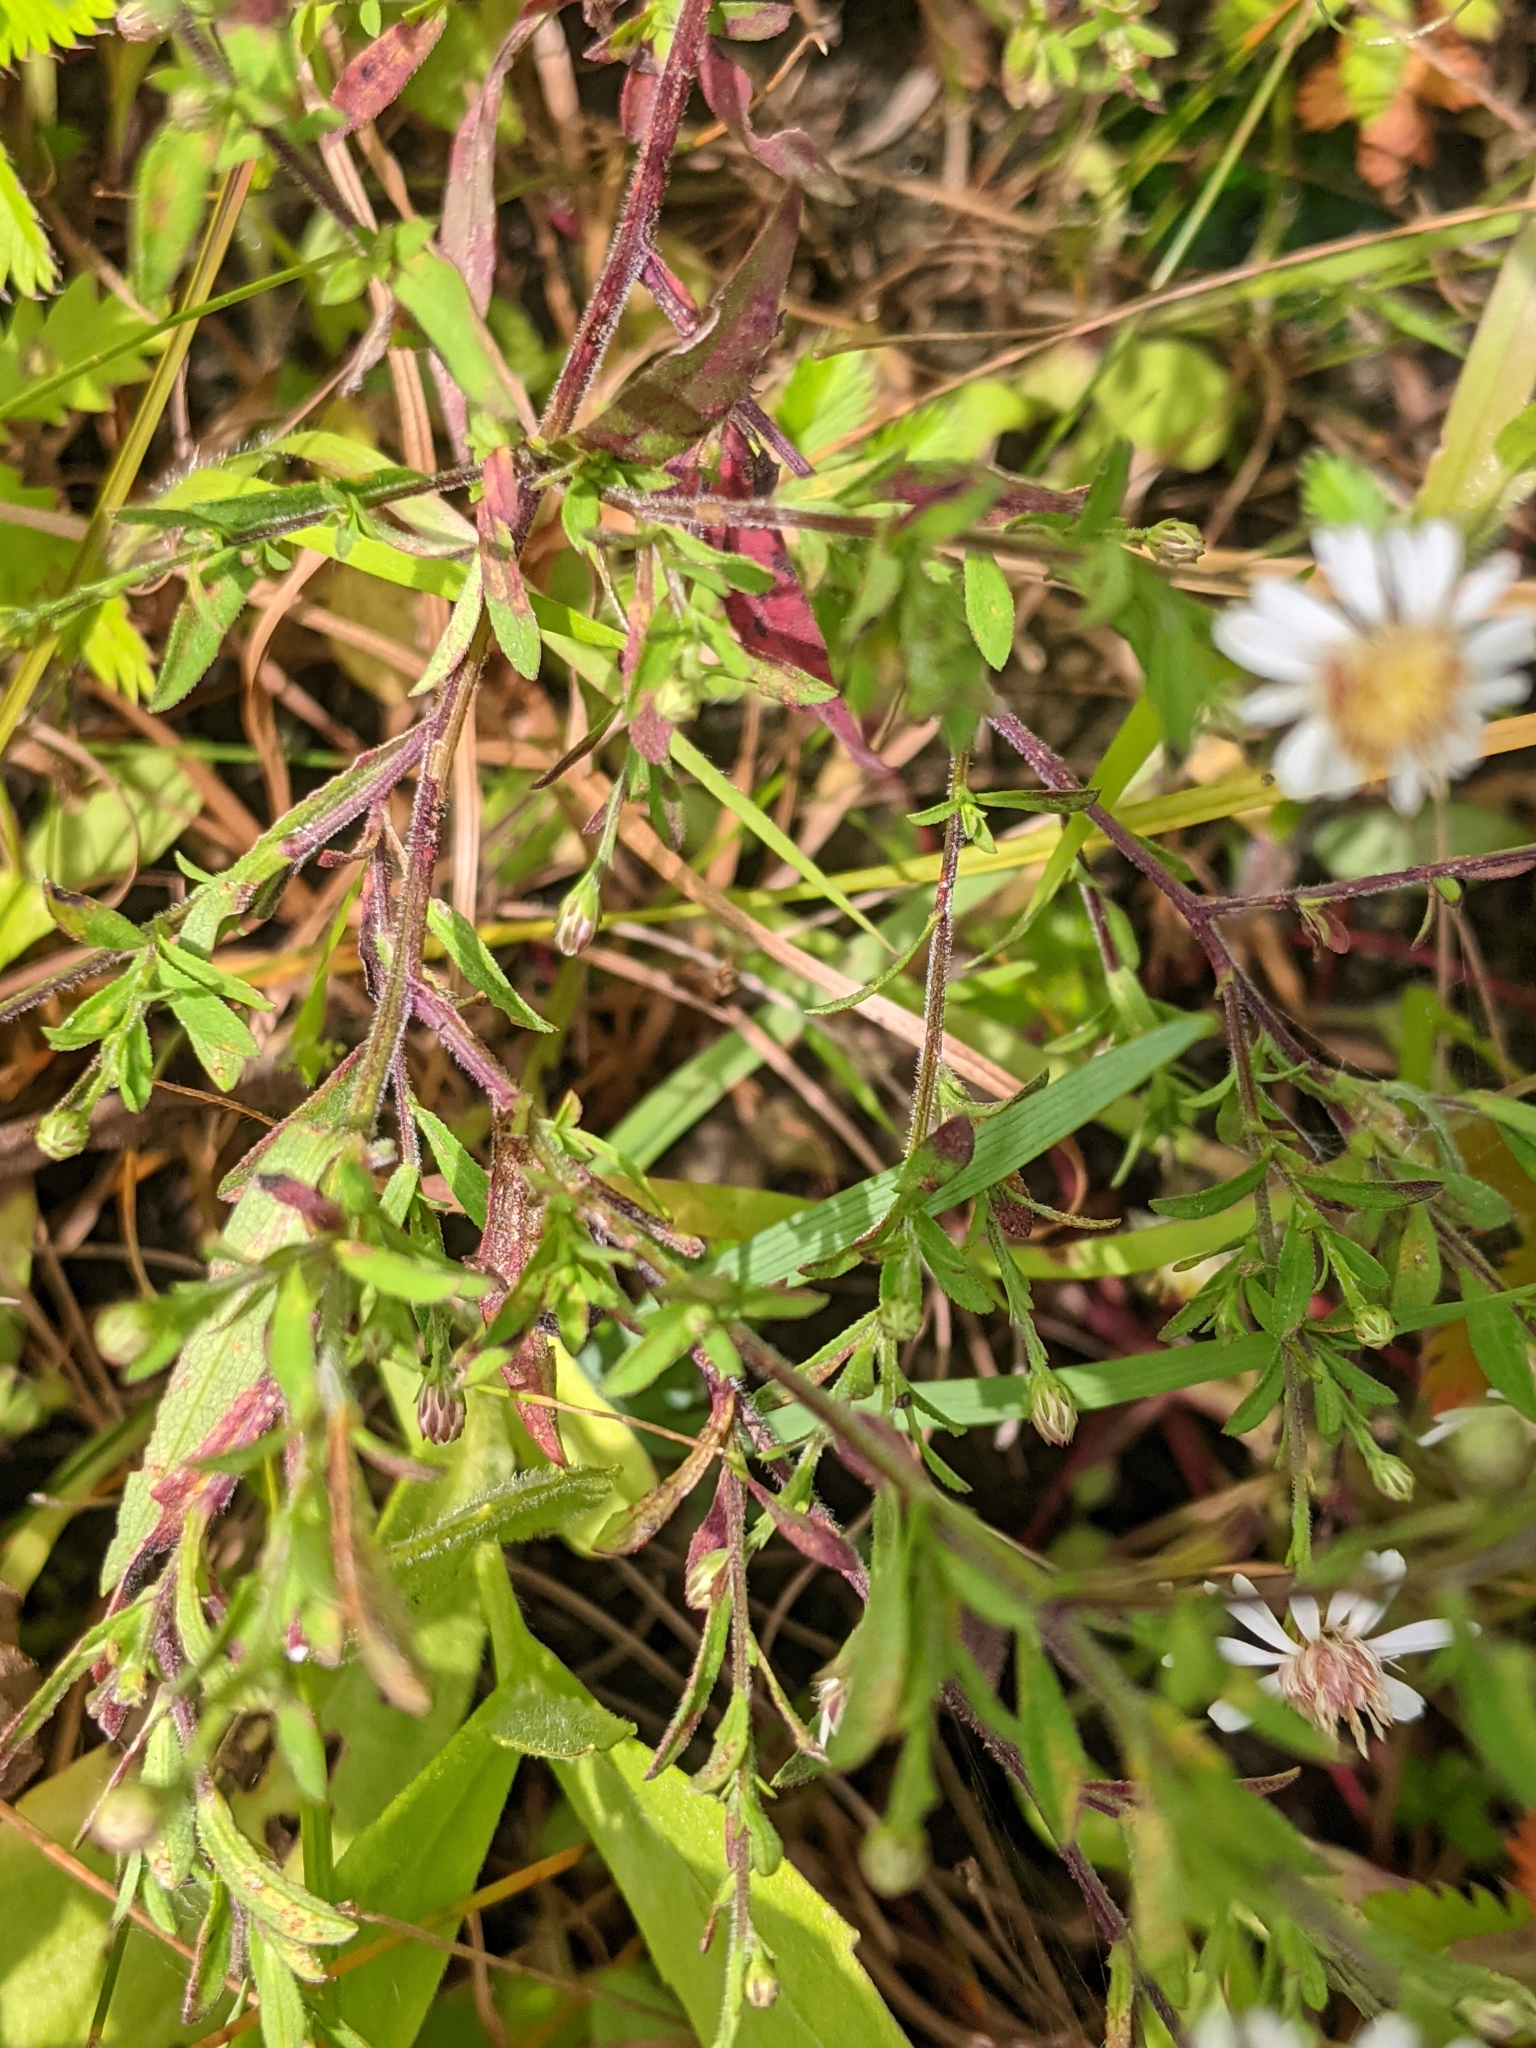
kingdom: Plantae
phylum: Tracheophyta
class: Magnoliopsida
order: Asterales
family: Asteraceae
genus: Symphyotrichum
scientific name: Symphyotrichum ontarionis
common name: Bottomland aster
